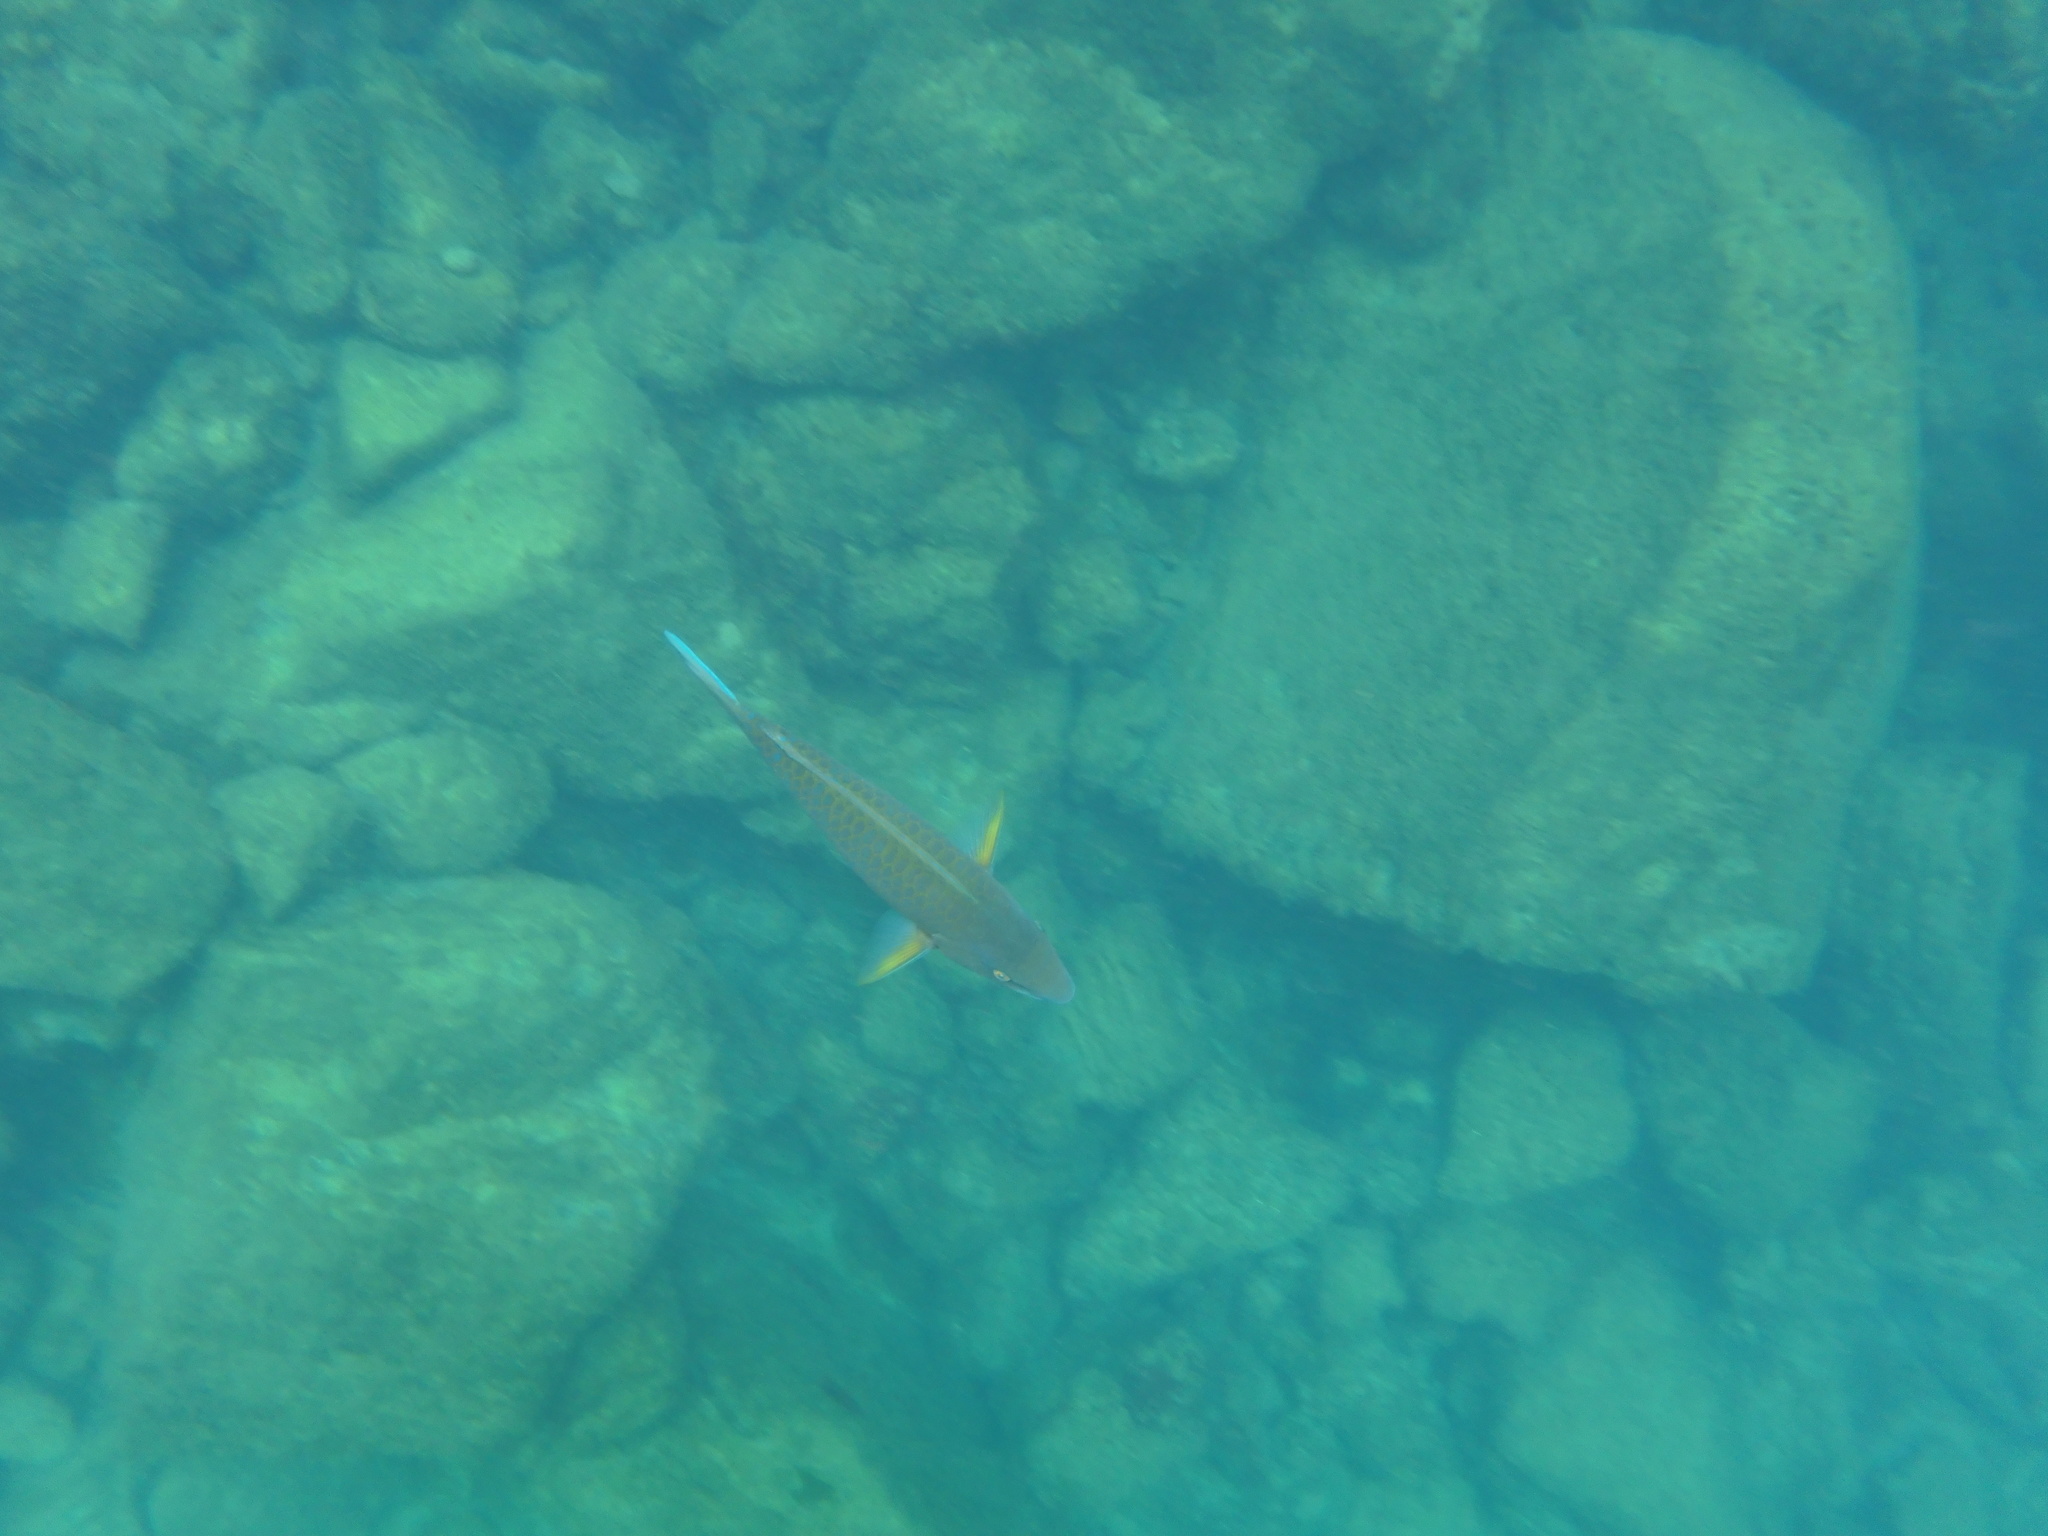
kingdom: Animalia
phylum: Chordata
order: Perciformes
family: Scaridae
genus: Scarus
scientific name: Scarus ghobban
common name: Blue-barred parrotfish
